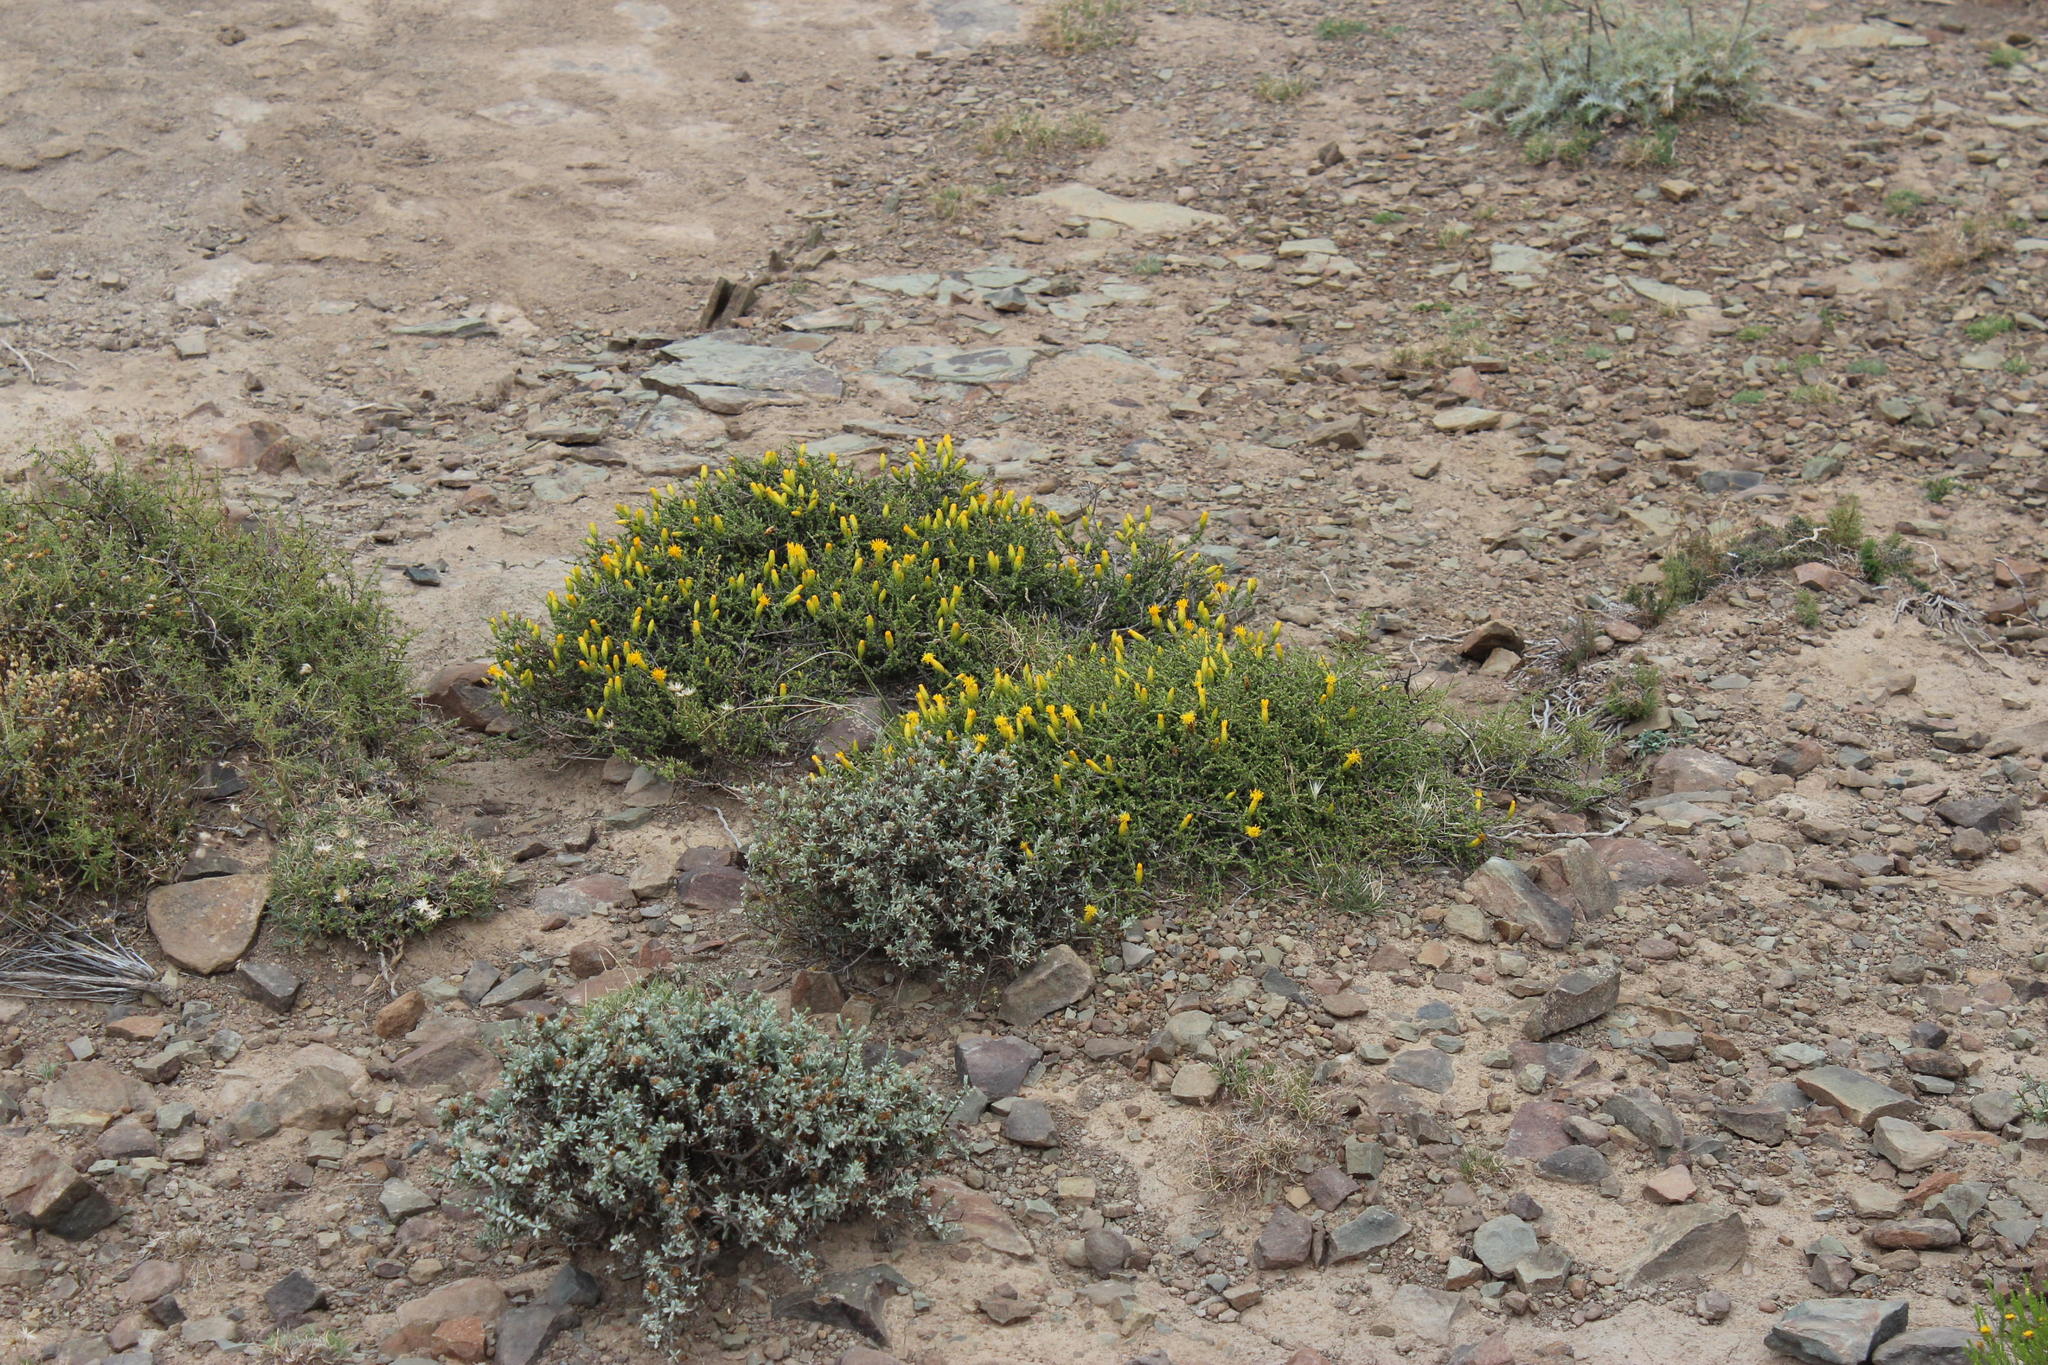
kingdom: Plantae
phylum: Tracheophyta
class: Magnoliopsida
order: Asterales
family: Asteraceae
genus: Pteronia
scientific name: Pteronia glomerata
